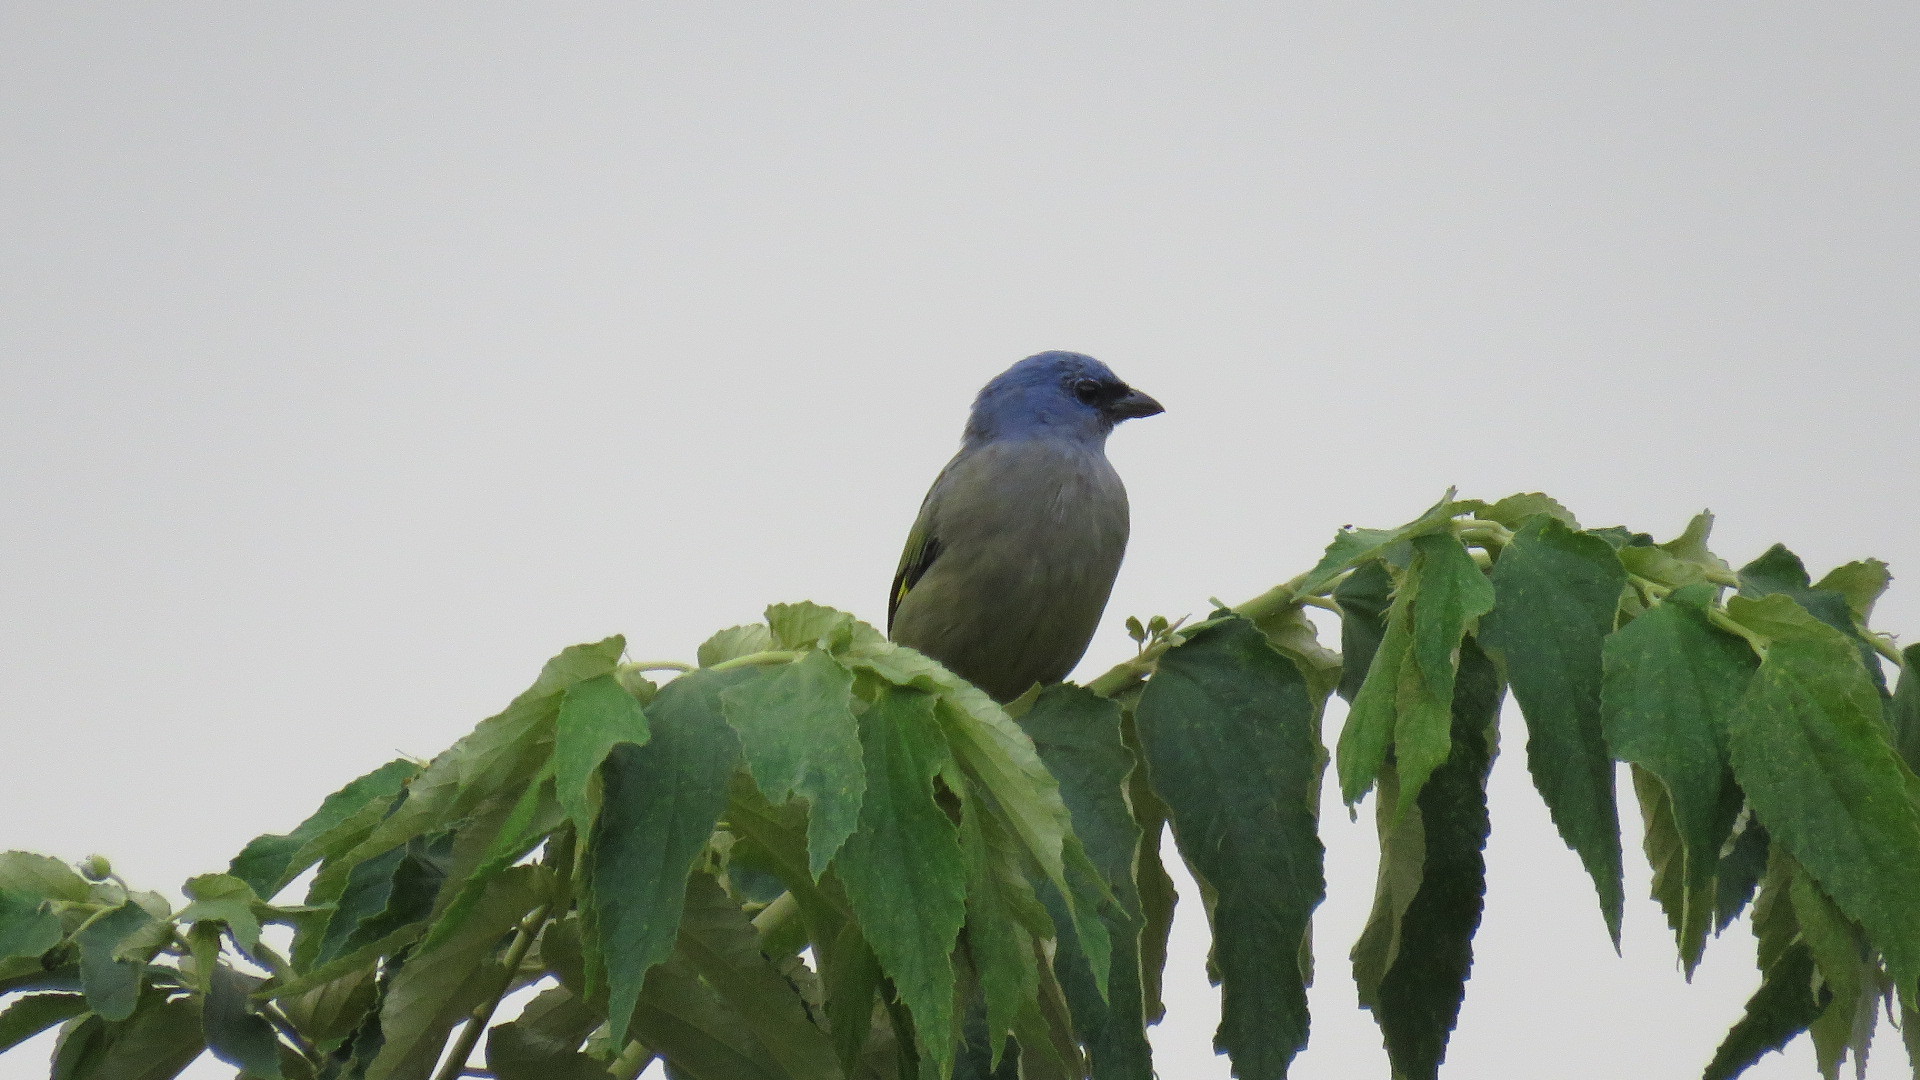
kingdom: Animalia
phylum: Chordata
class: Aves
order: Passeriformes
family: Thraupidae
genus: Thraupis
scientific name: Thraupis abbas
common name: Yellow-winged tanager
